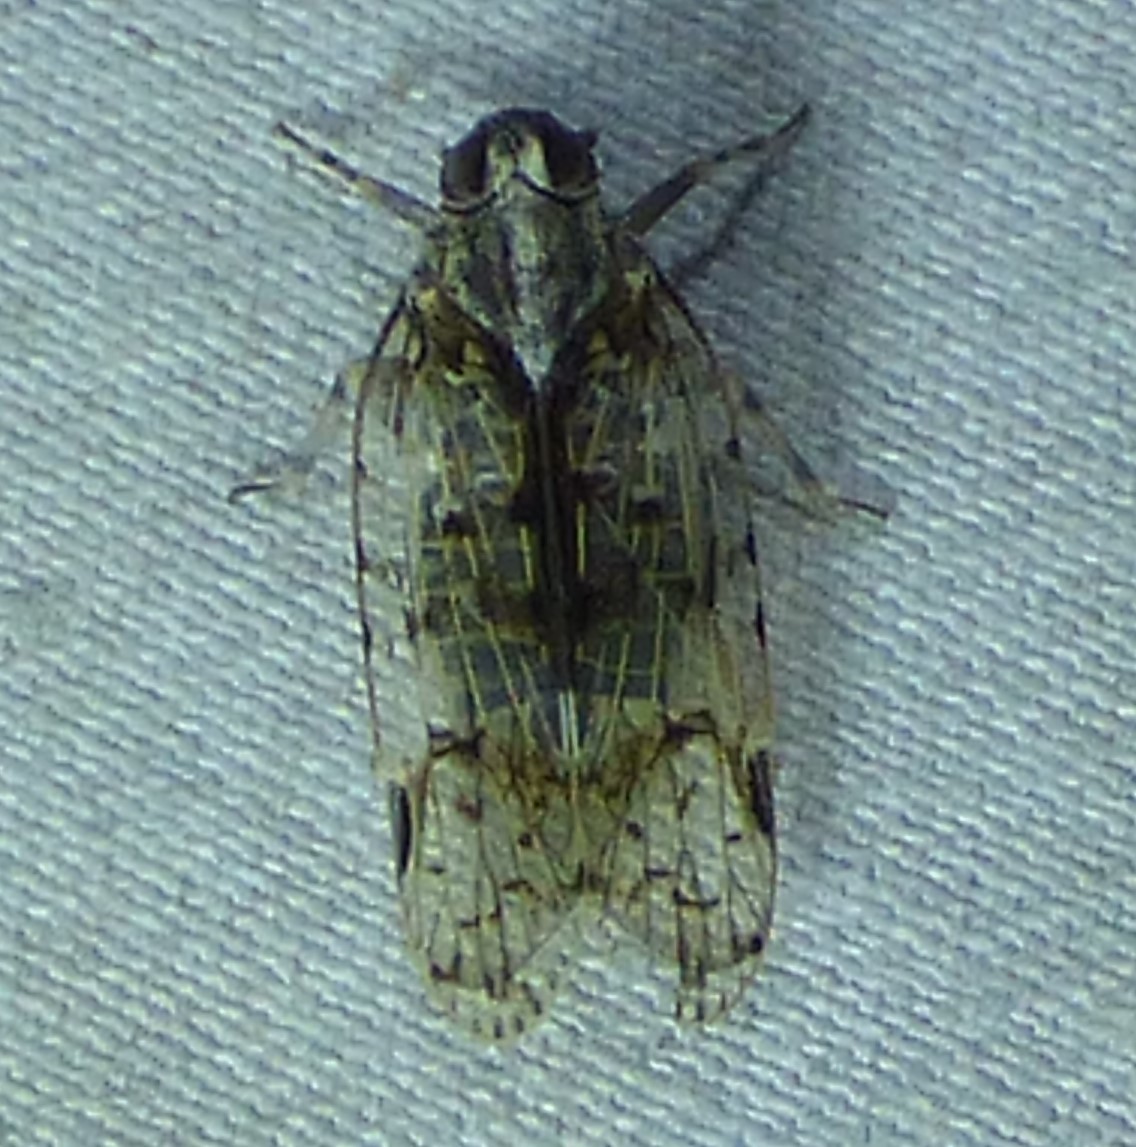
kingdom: Animalia
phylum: Arthropoda
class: Insecta
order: Hemiptera
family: Cixiidae
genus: Melanoliarus
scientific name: Melanoliarus placitus
